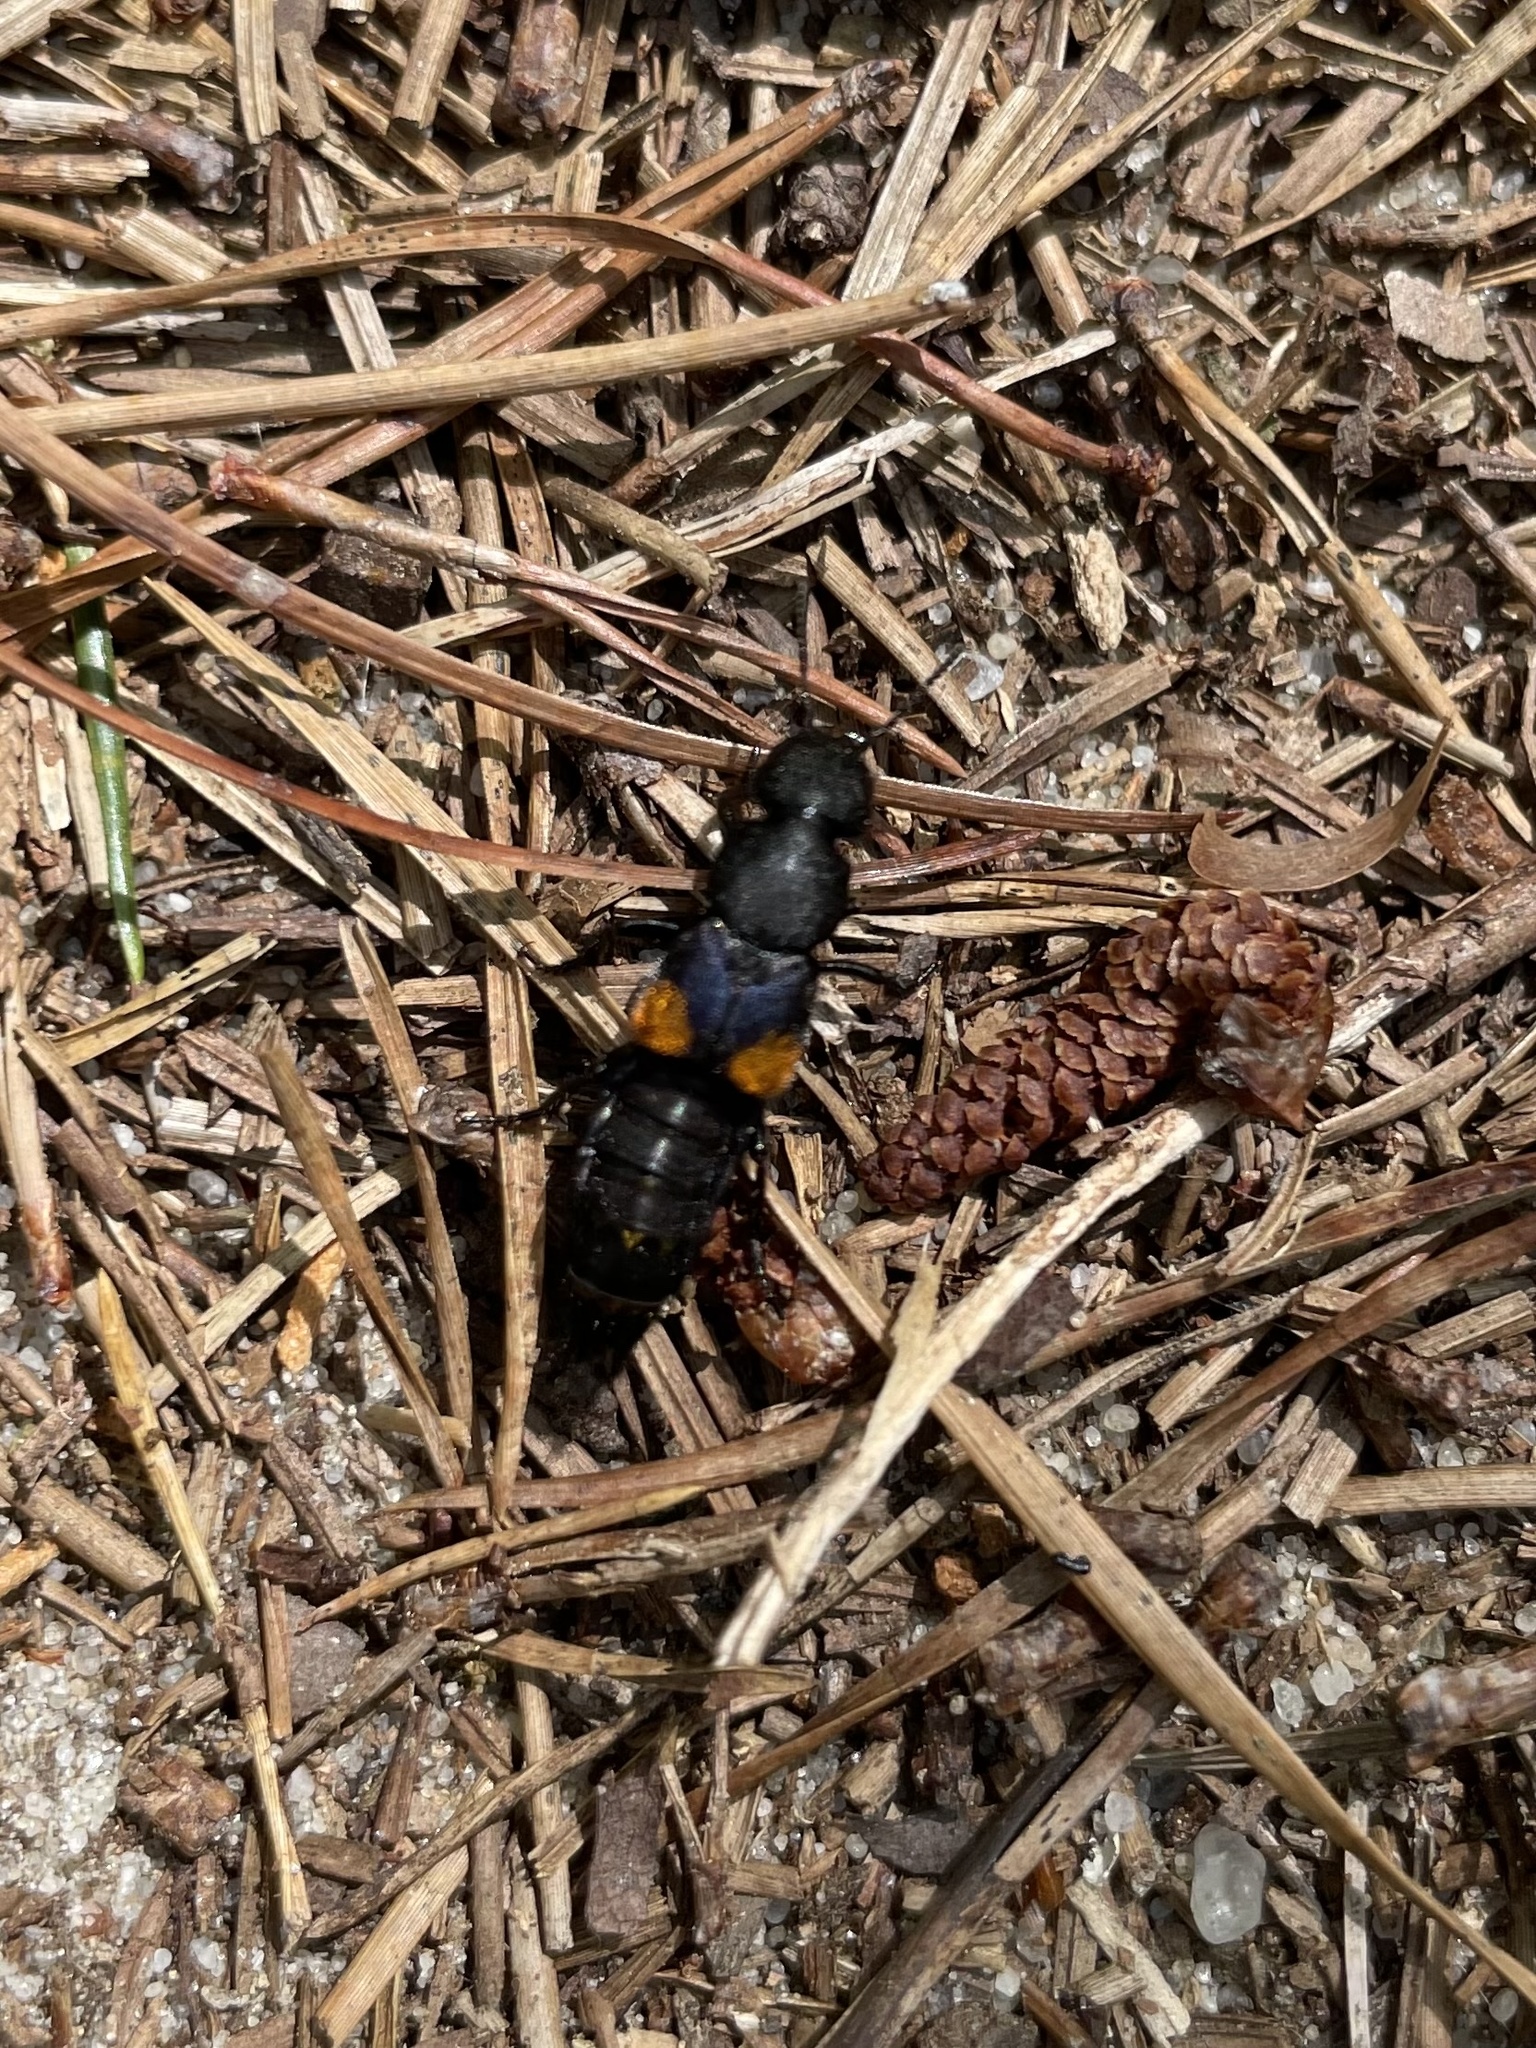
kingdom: Animalia
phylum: Arthropoda
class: Insecta
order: Coleoptera
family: Staphylinidae
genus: Platydracus
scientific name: Platydracus fossator
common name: Red-spotted rove beetle
